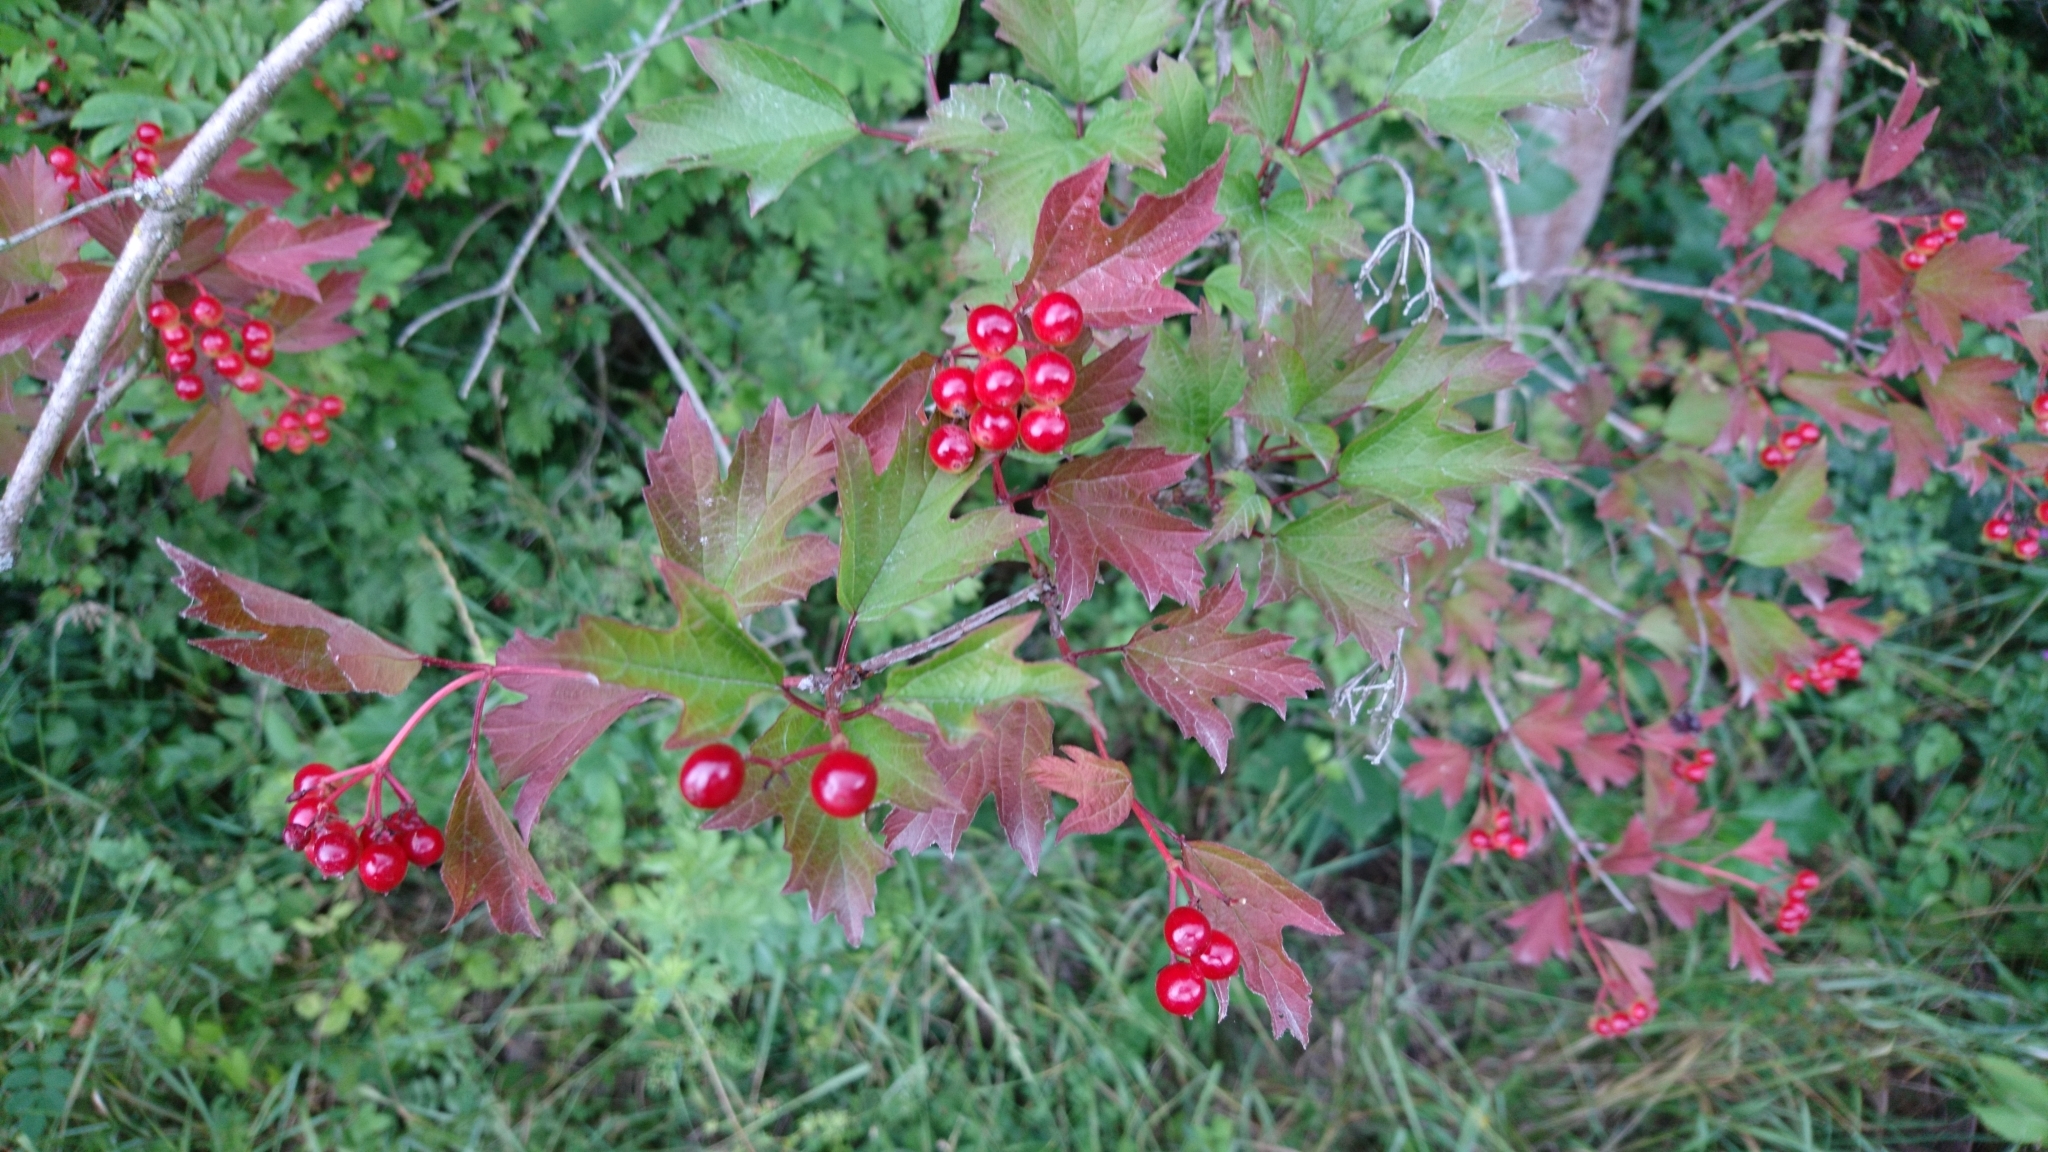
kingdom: Plantae
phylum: Tracheophyta
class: Magnoliopsida
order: Dipsacales
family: Viburnaceae
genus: Viburnum
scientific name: Viburnum opulus
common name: Guelder-rose
